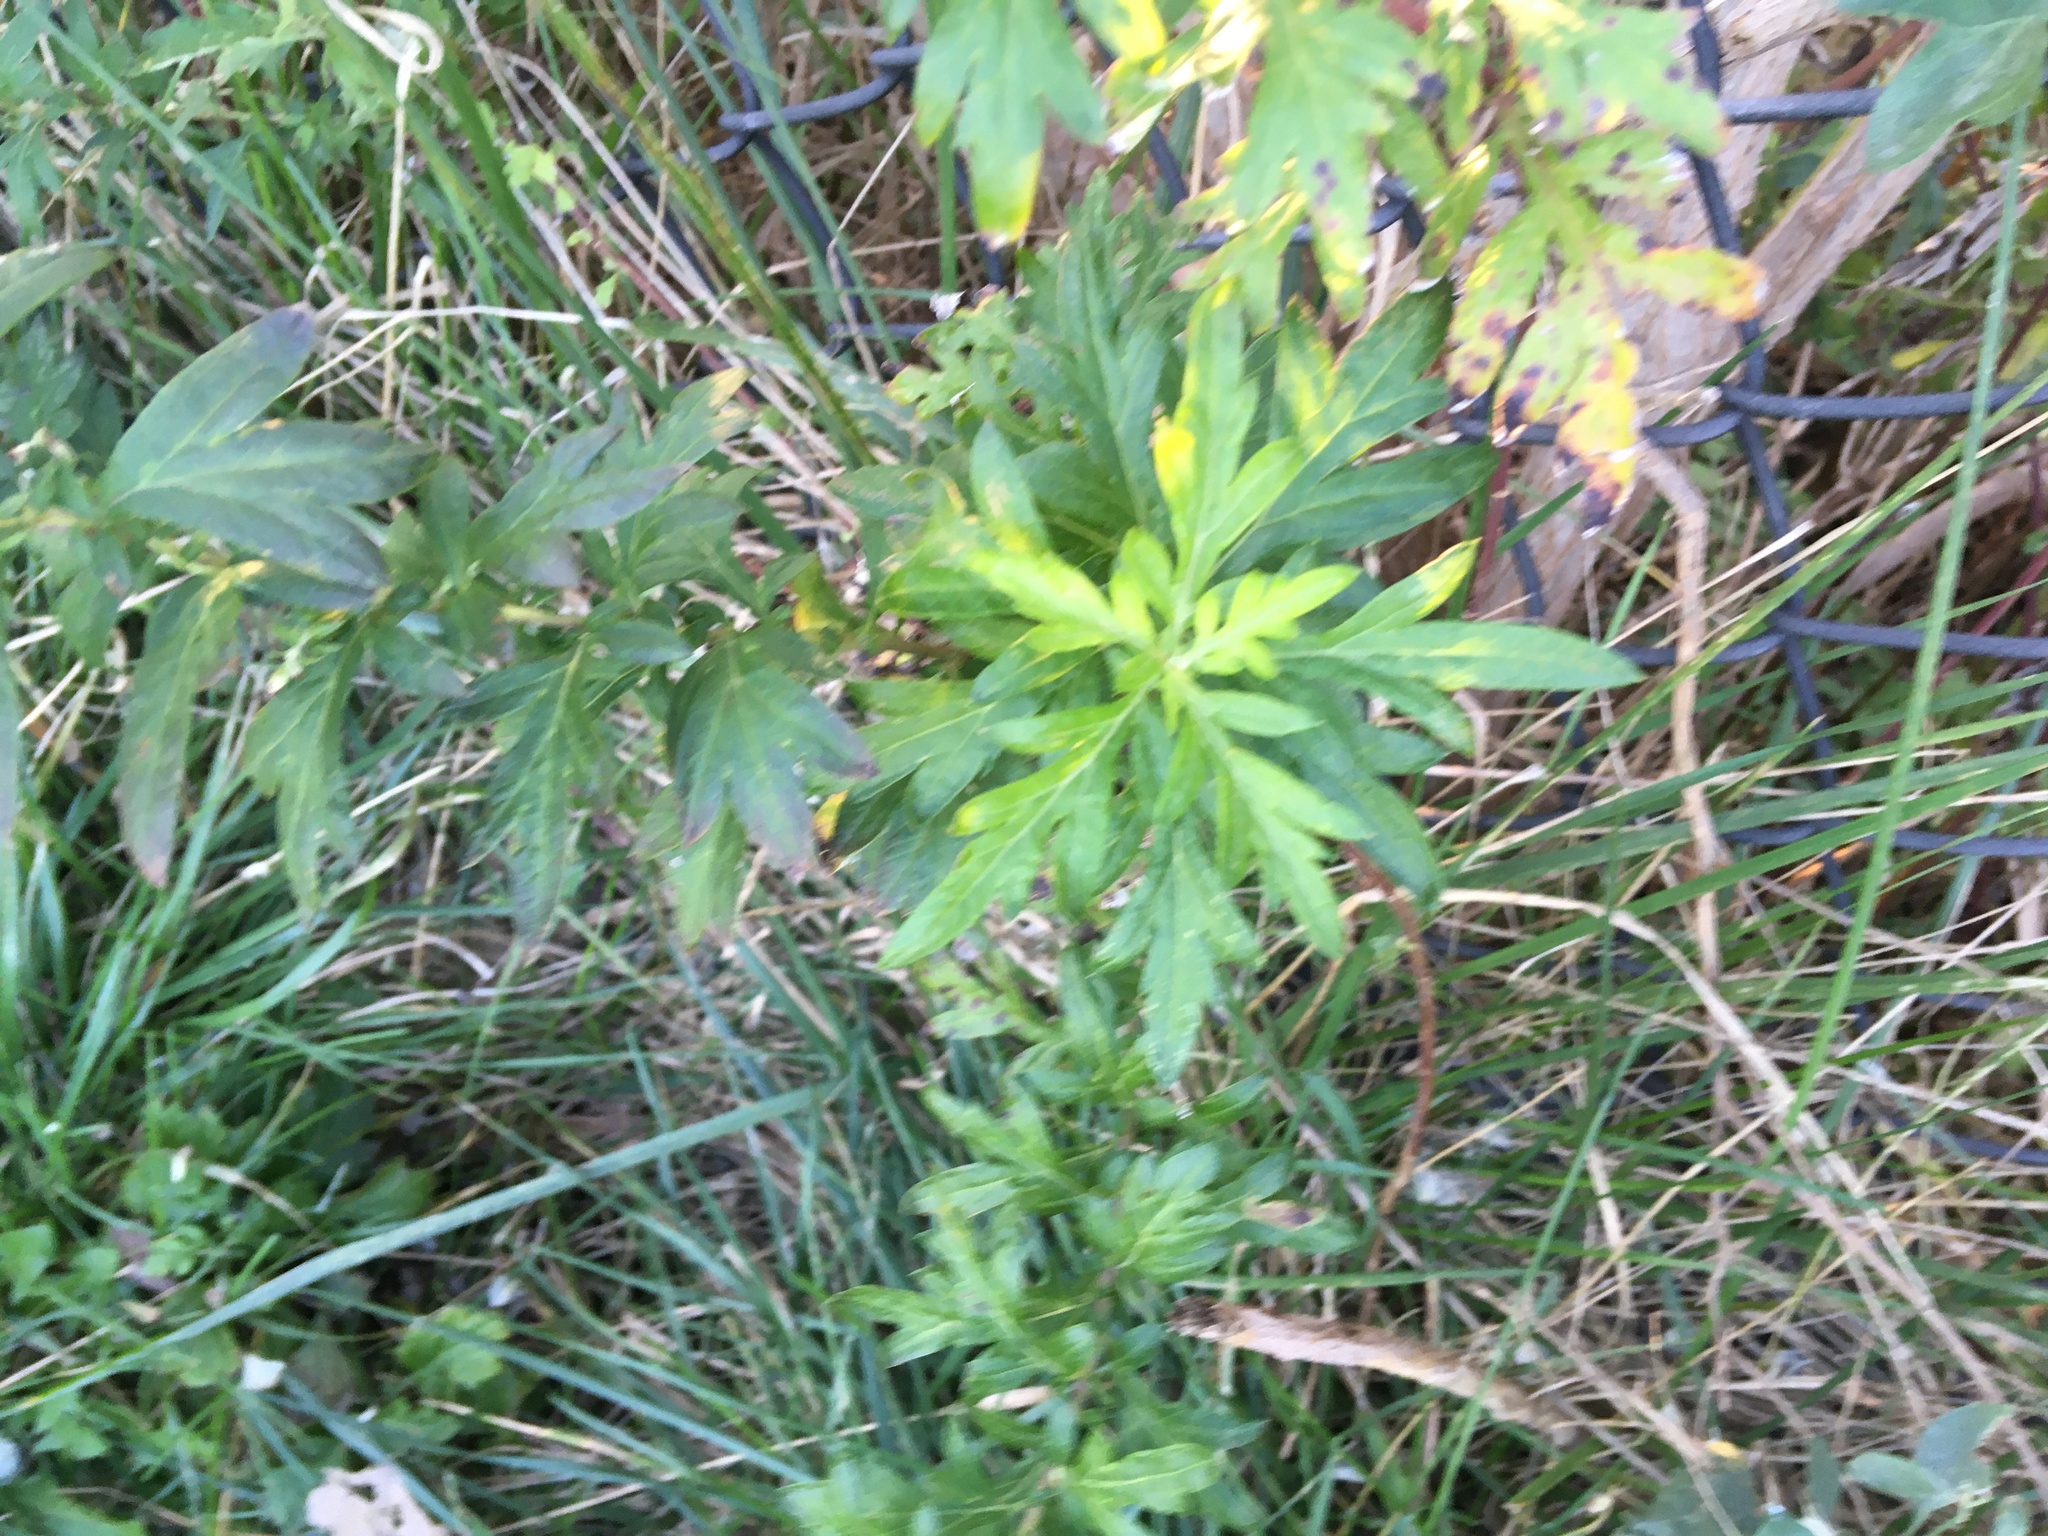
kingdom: Plantae
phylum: Tracheophyta
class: Magnoliopsida
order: Asterales
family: Asteraceae
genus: Artemisia
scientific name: Artemisia vulgaris
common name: Mugwort
